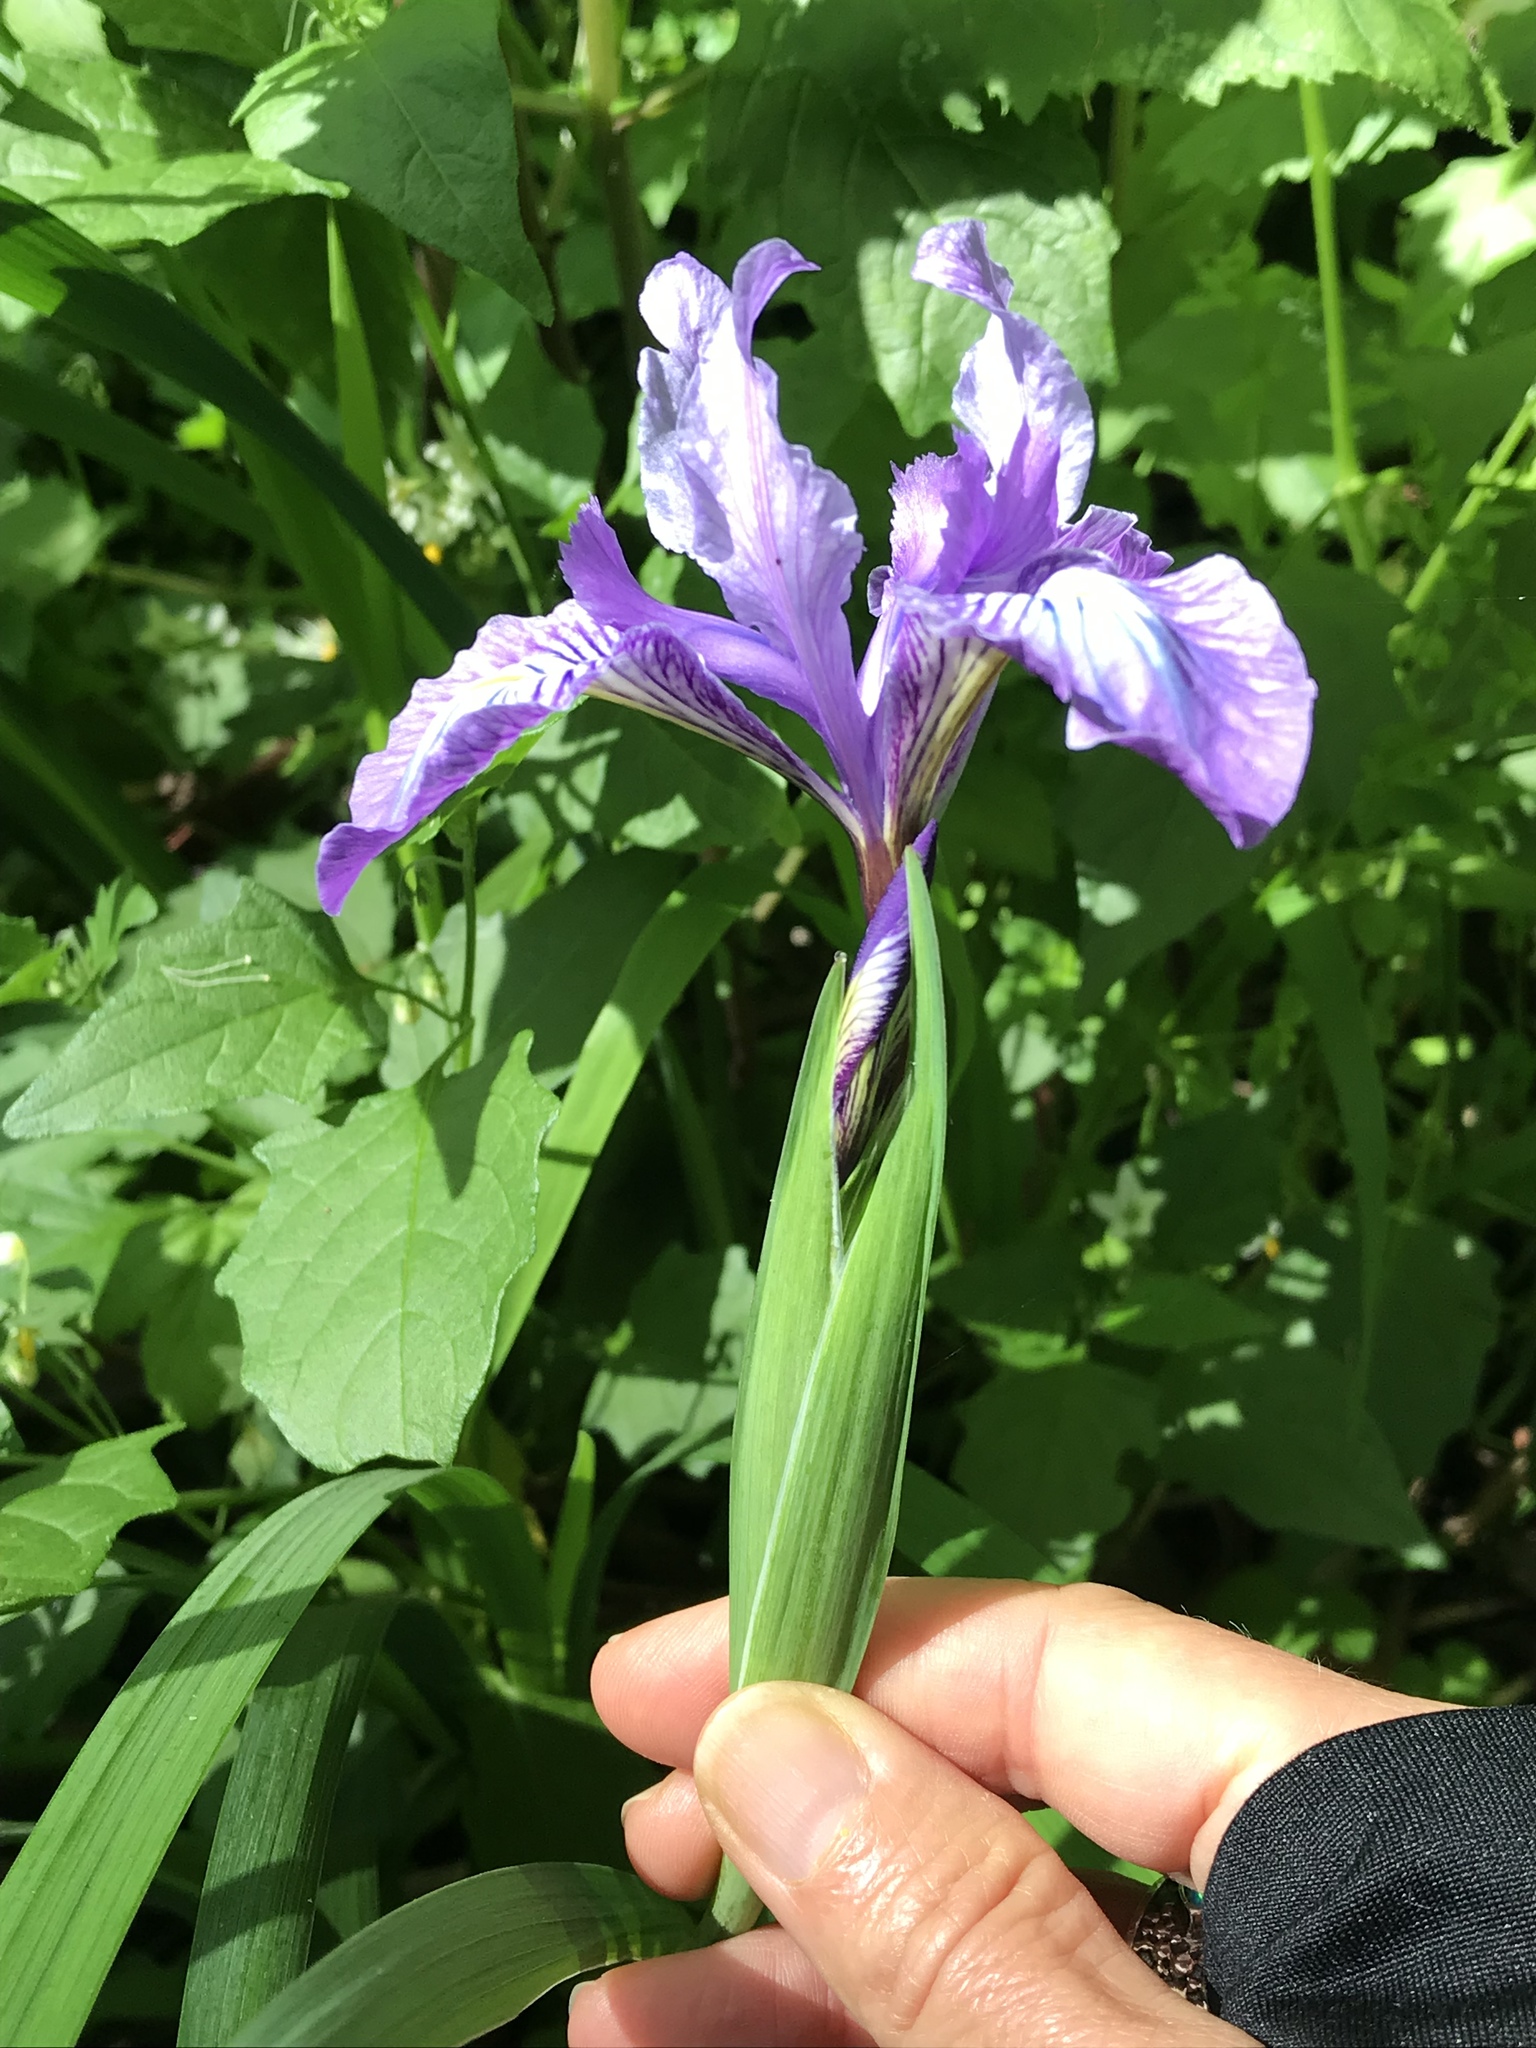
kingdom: Plantae
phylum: Tracheophyta
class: Liliopsida
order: Asparagales
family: Iridaceae
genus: Iris
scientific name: Iris douglasiana
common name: Marin iris
